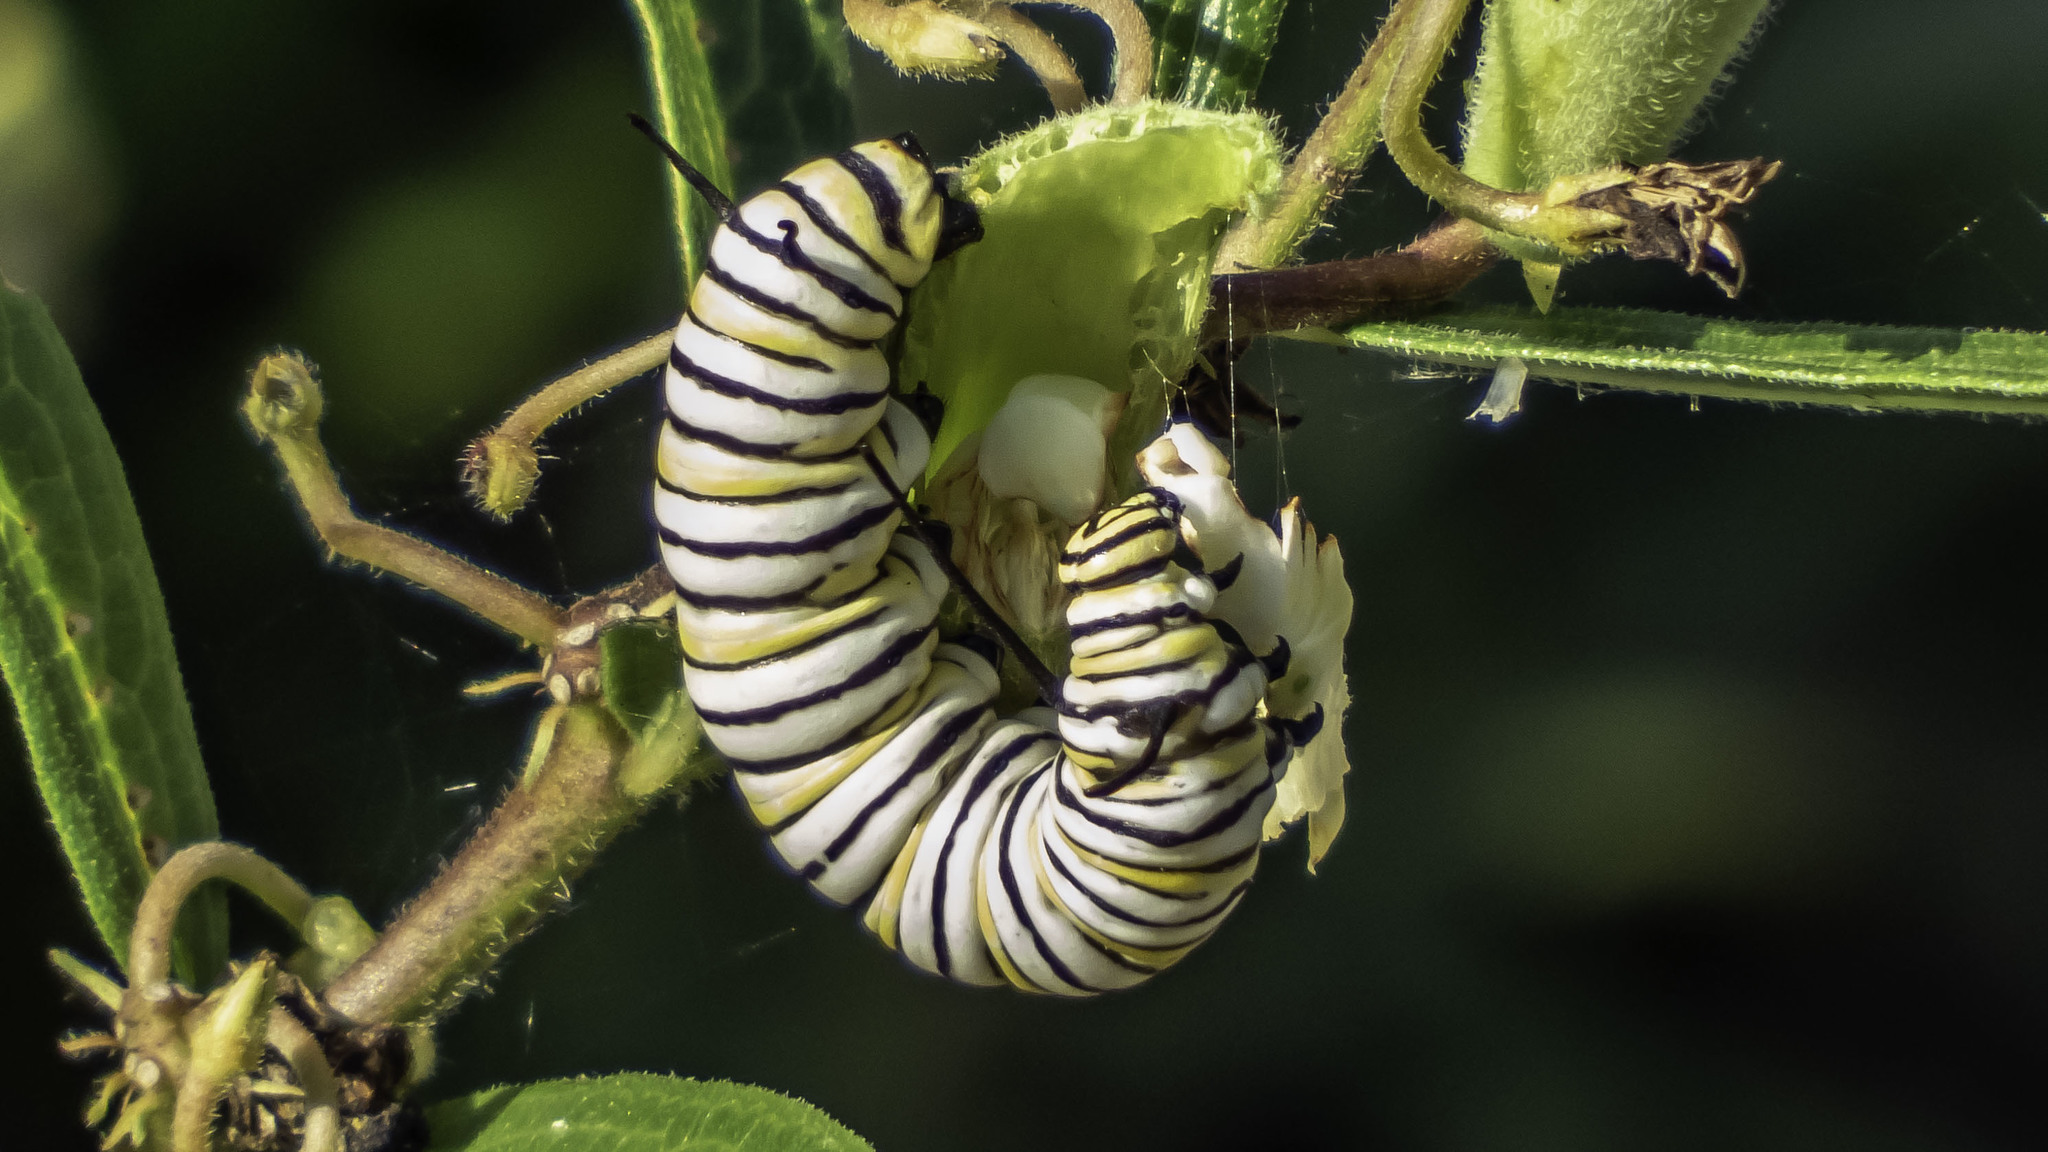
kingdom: Animalia
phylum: Arthropoda
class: Insecta
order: Lepidoptera
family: Nymphalidae
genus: Danaus
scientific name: Danaus plexippus
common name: Monarch
